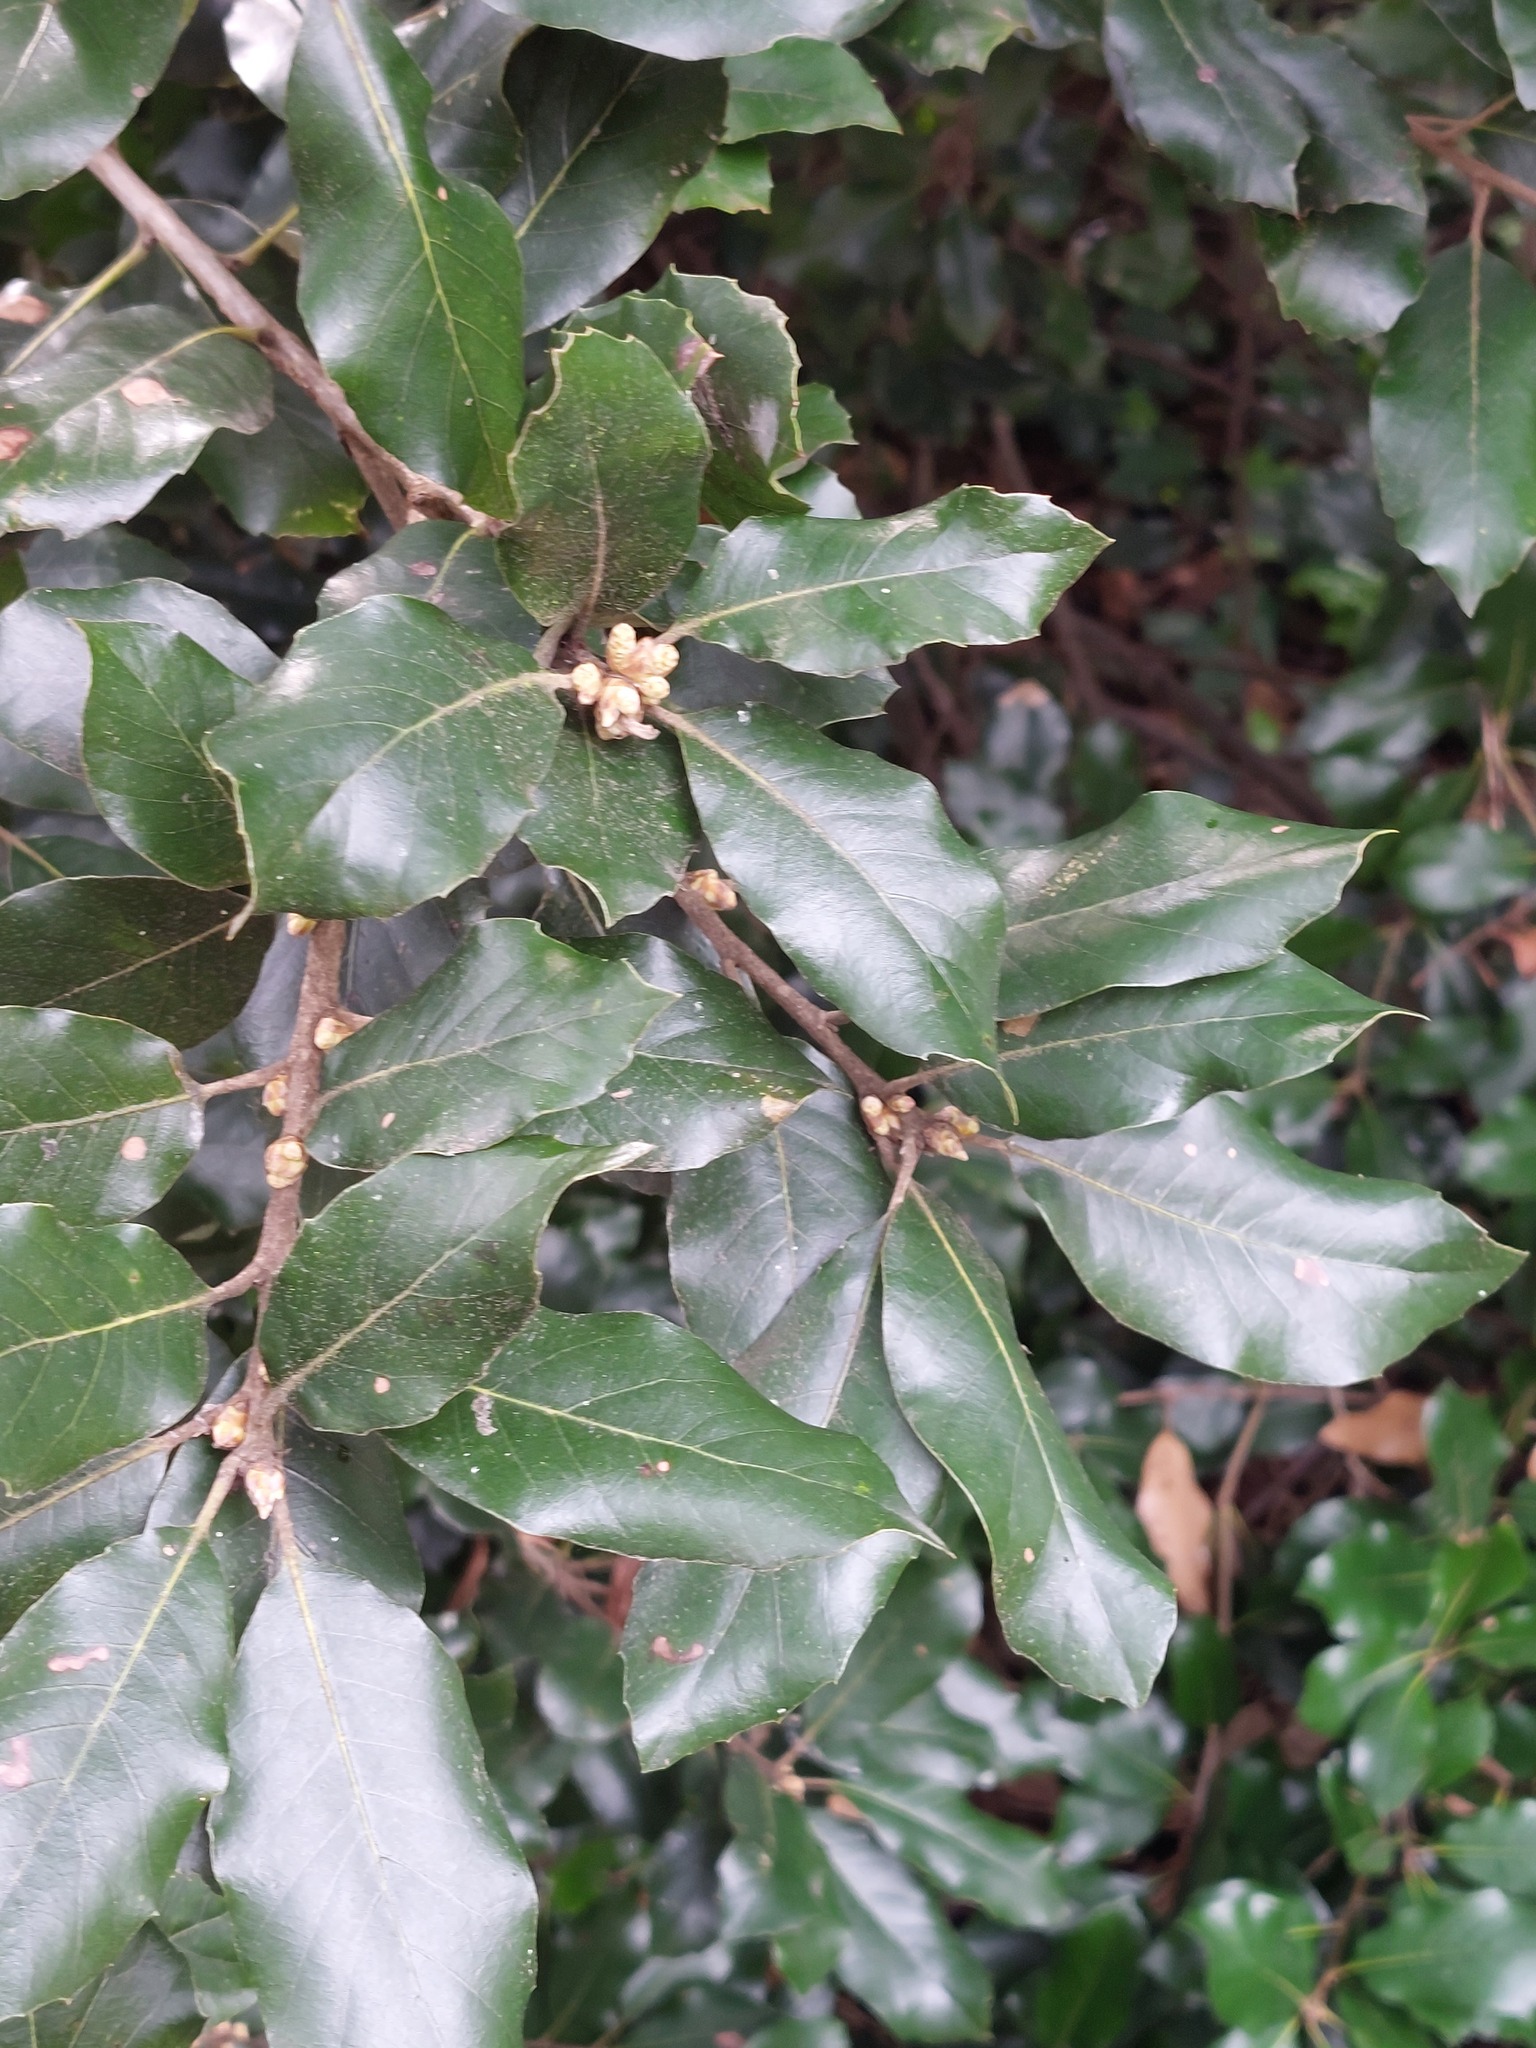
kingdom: Plantae
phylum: Tracheophyta
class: Magnoliopsida
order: Fagales
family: Fagaceae
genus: Quercus
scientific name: Quercus ilex
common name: Evergreen oak
